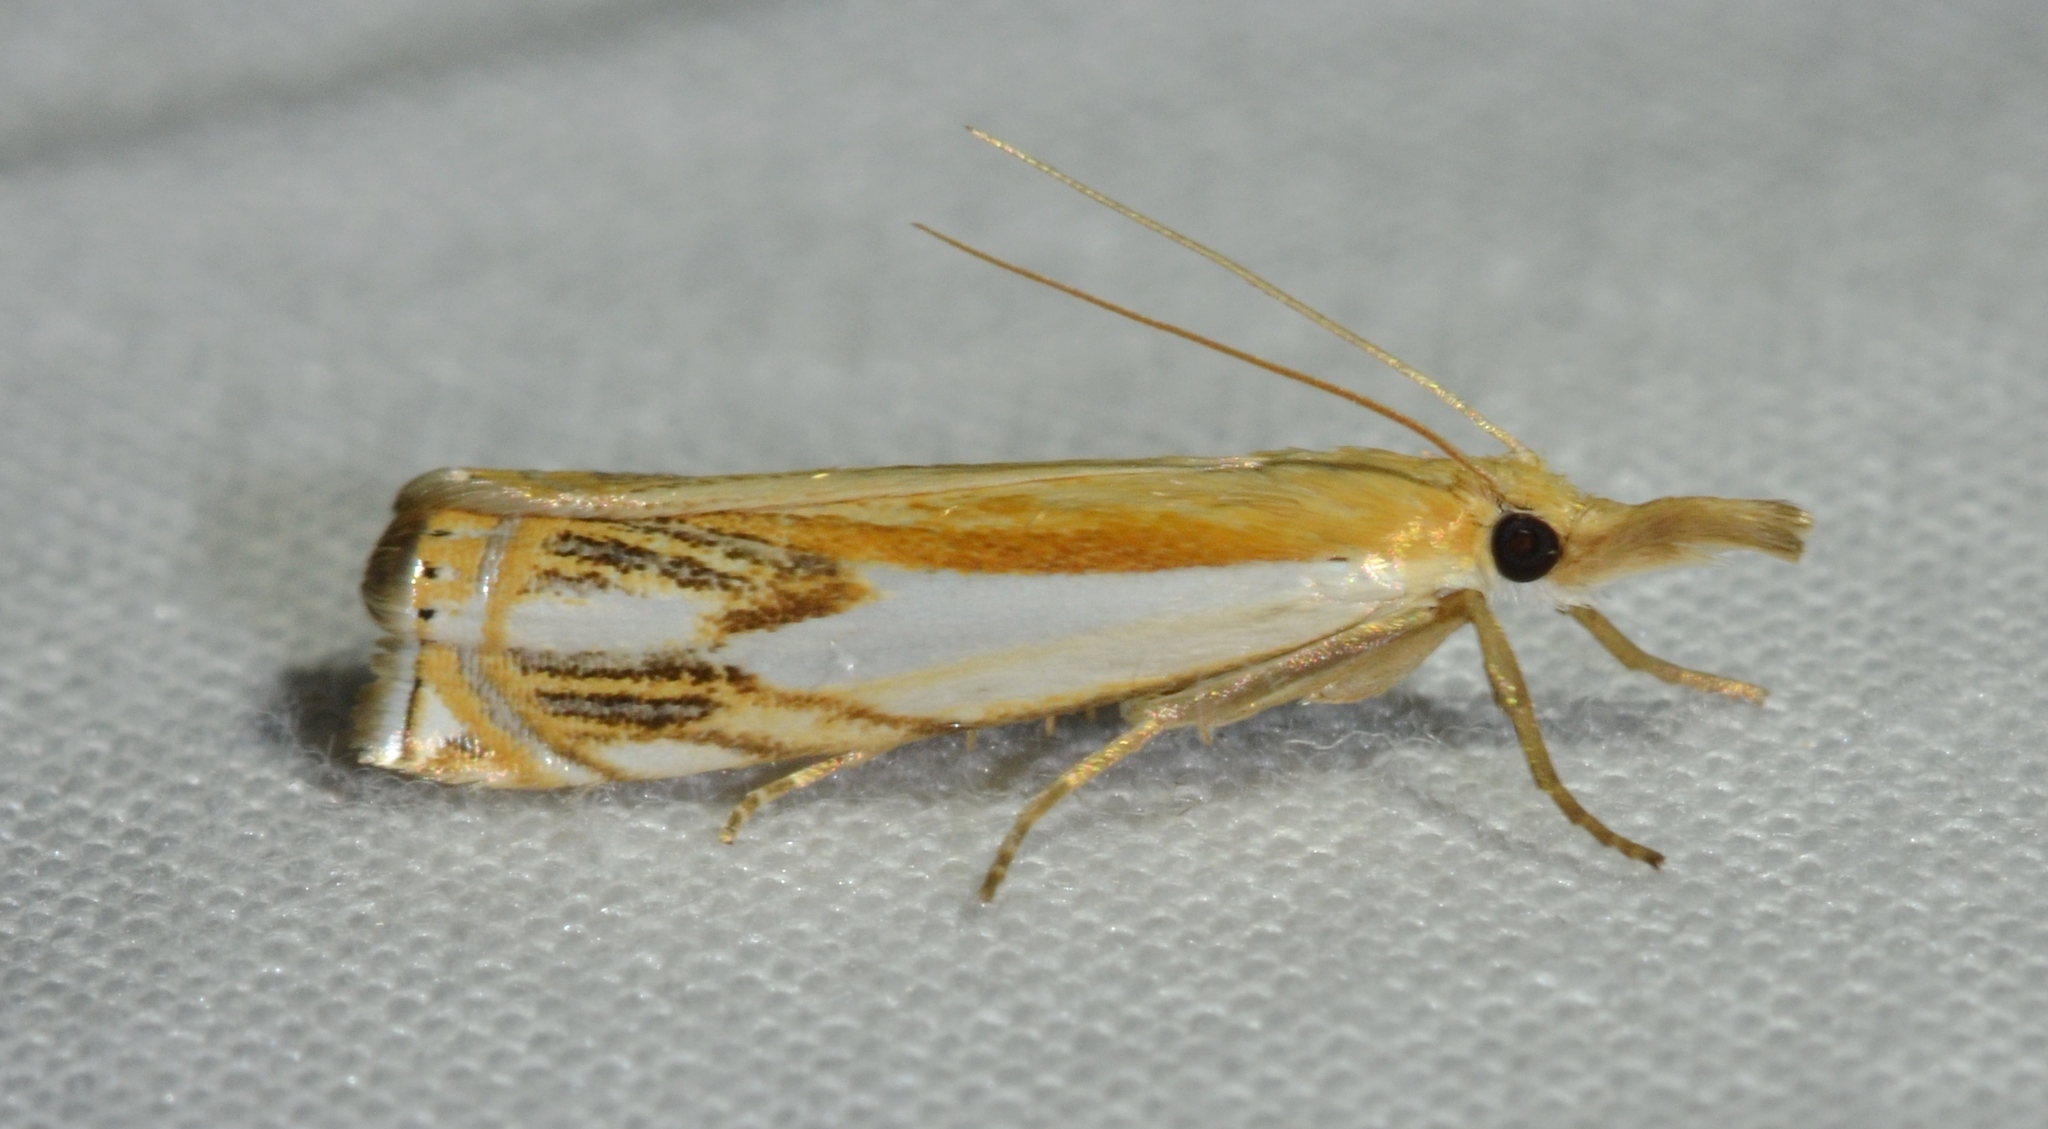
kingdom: Animalia
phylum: Arthropoda
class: Insecta
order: Lepidoptera
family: Crambidae
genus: Crambus
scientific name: Crambus agitatellus
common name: Double-banded grass-veneer
